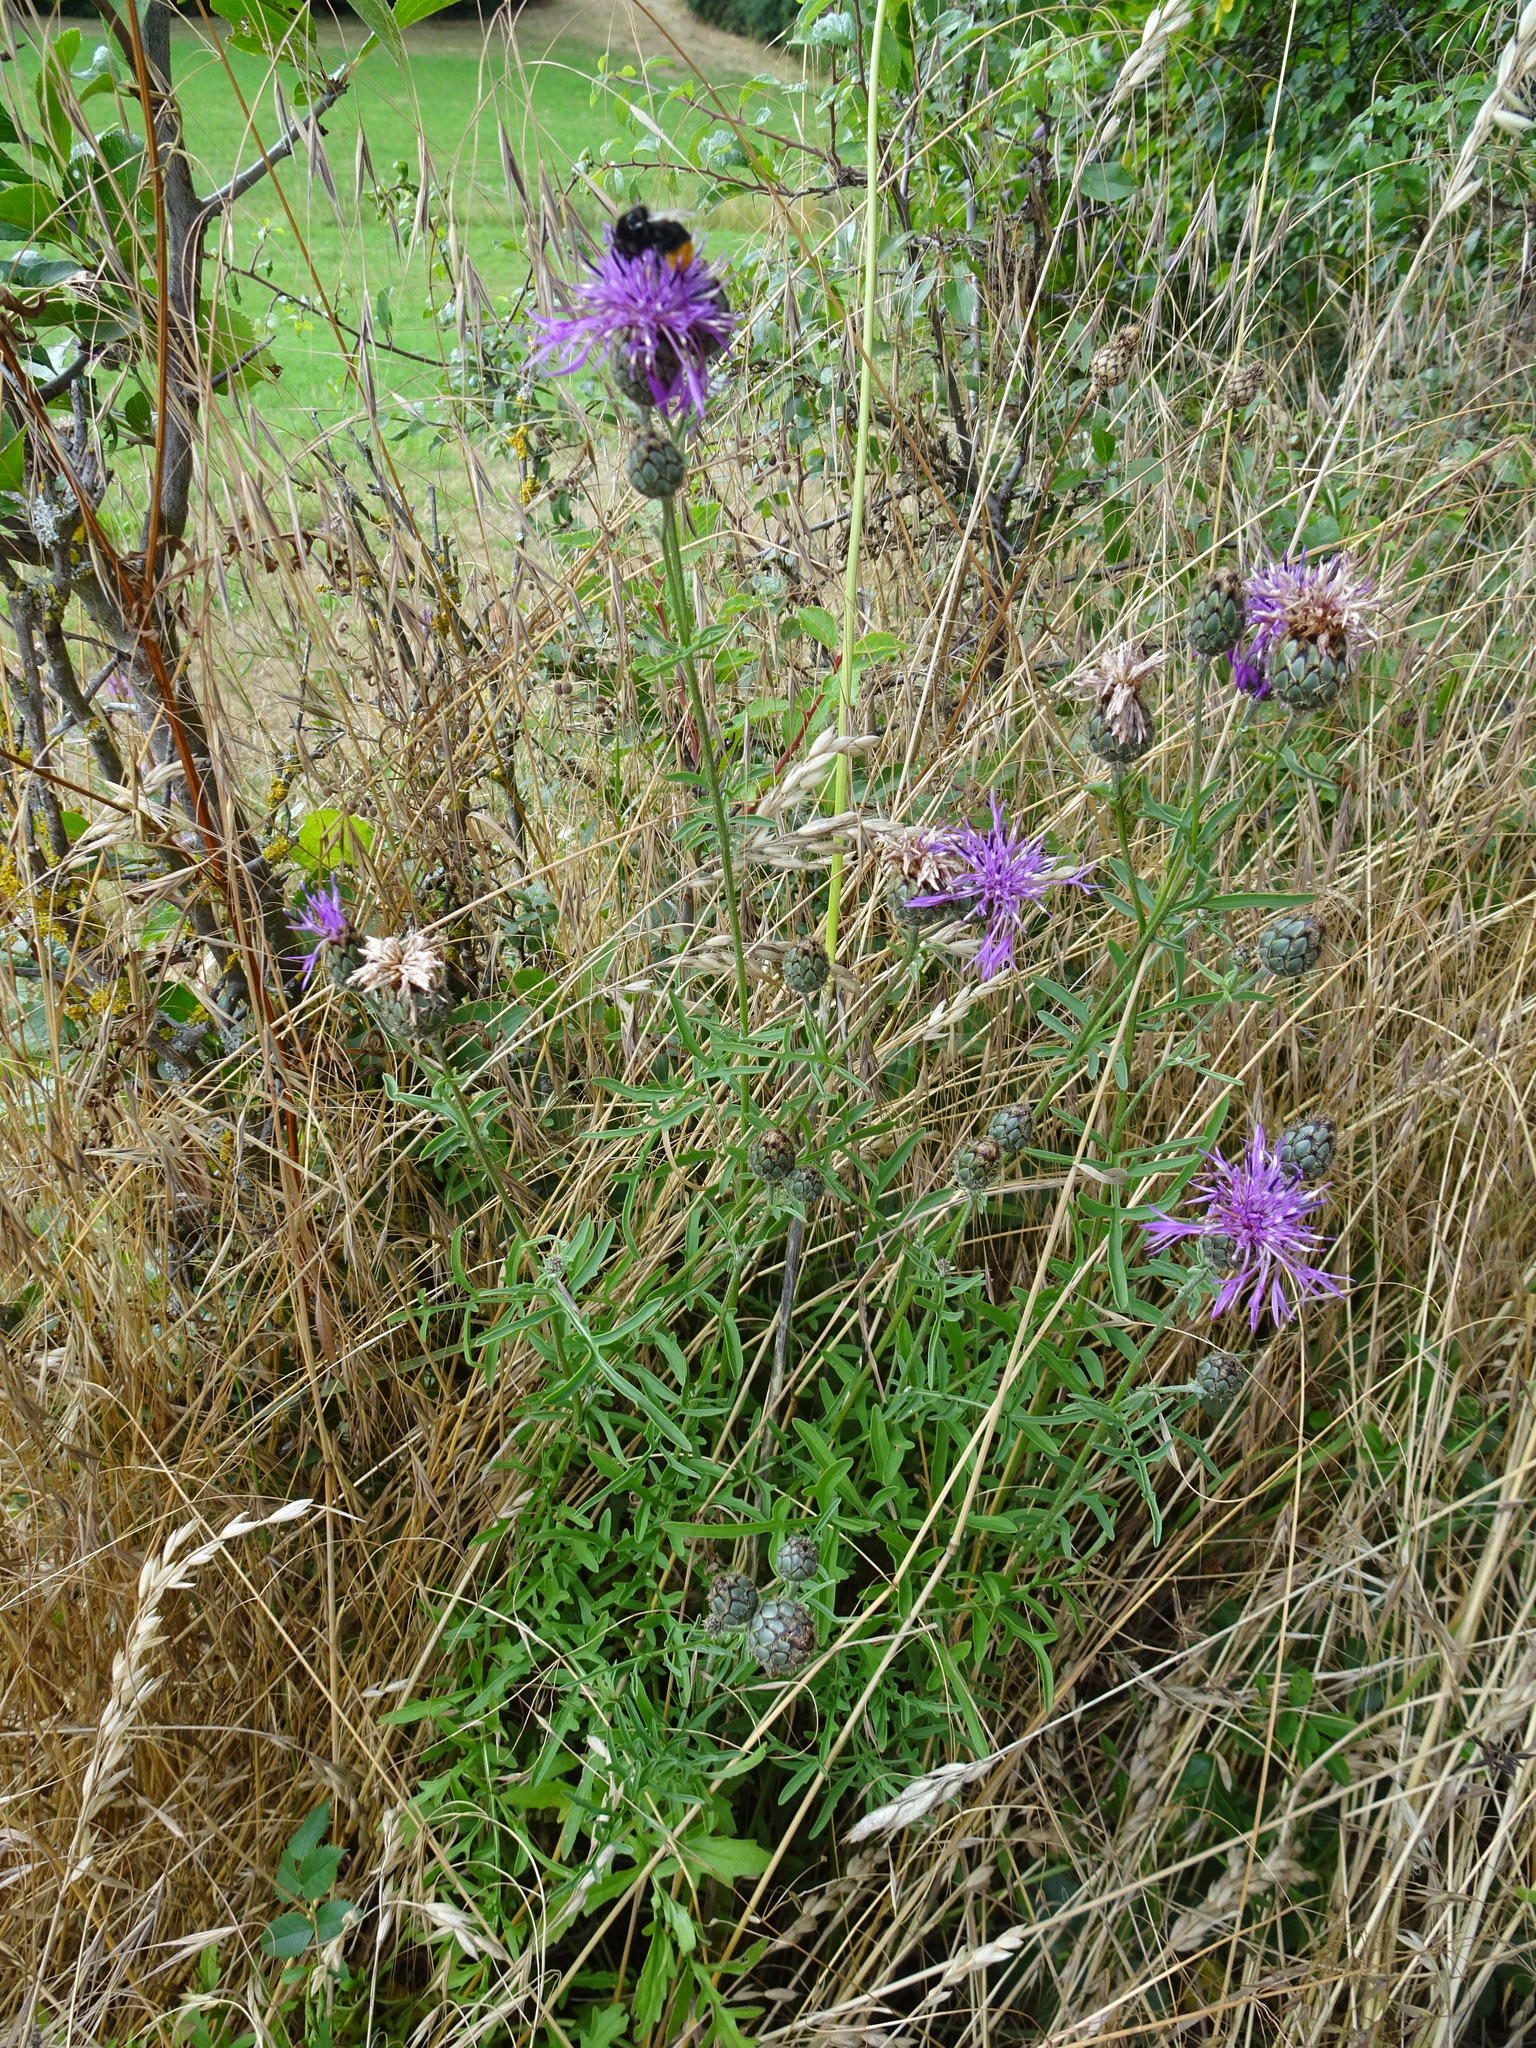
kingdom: Plantae
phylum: Tracheophyta
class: Magnoliopsida
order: Asterales
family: Asteraceae
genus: Centaurea
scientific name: Centaurea scabiosa
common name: Greater knapweed
